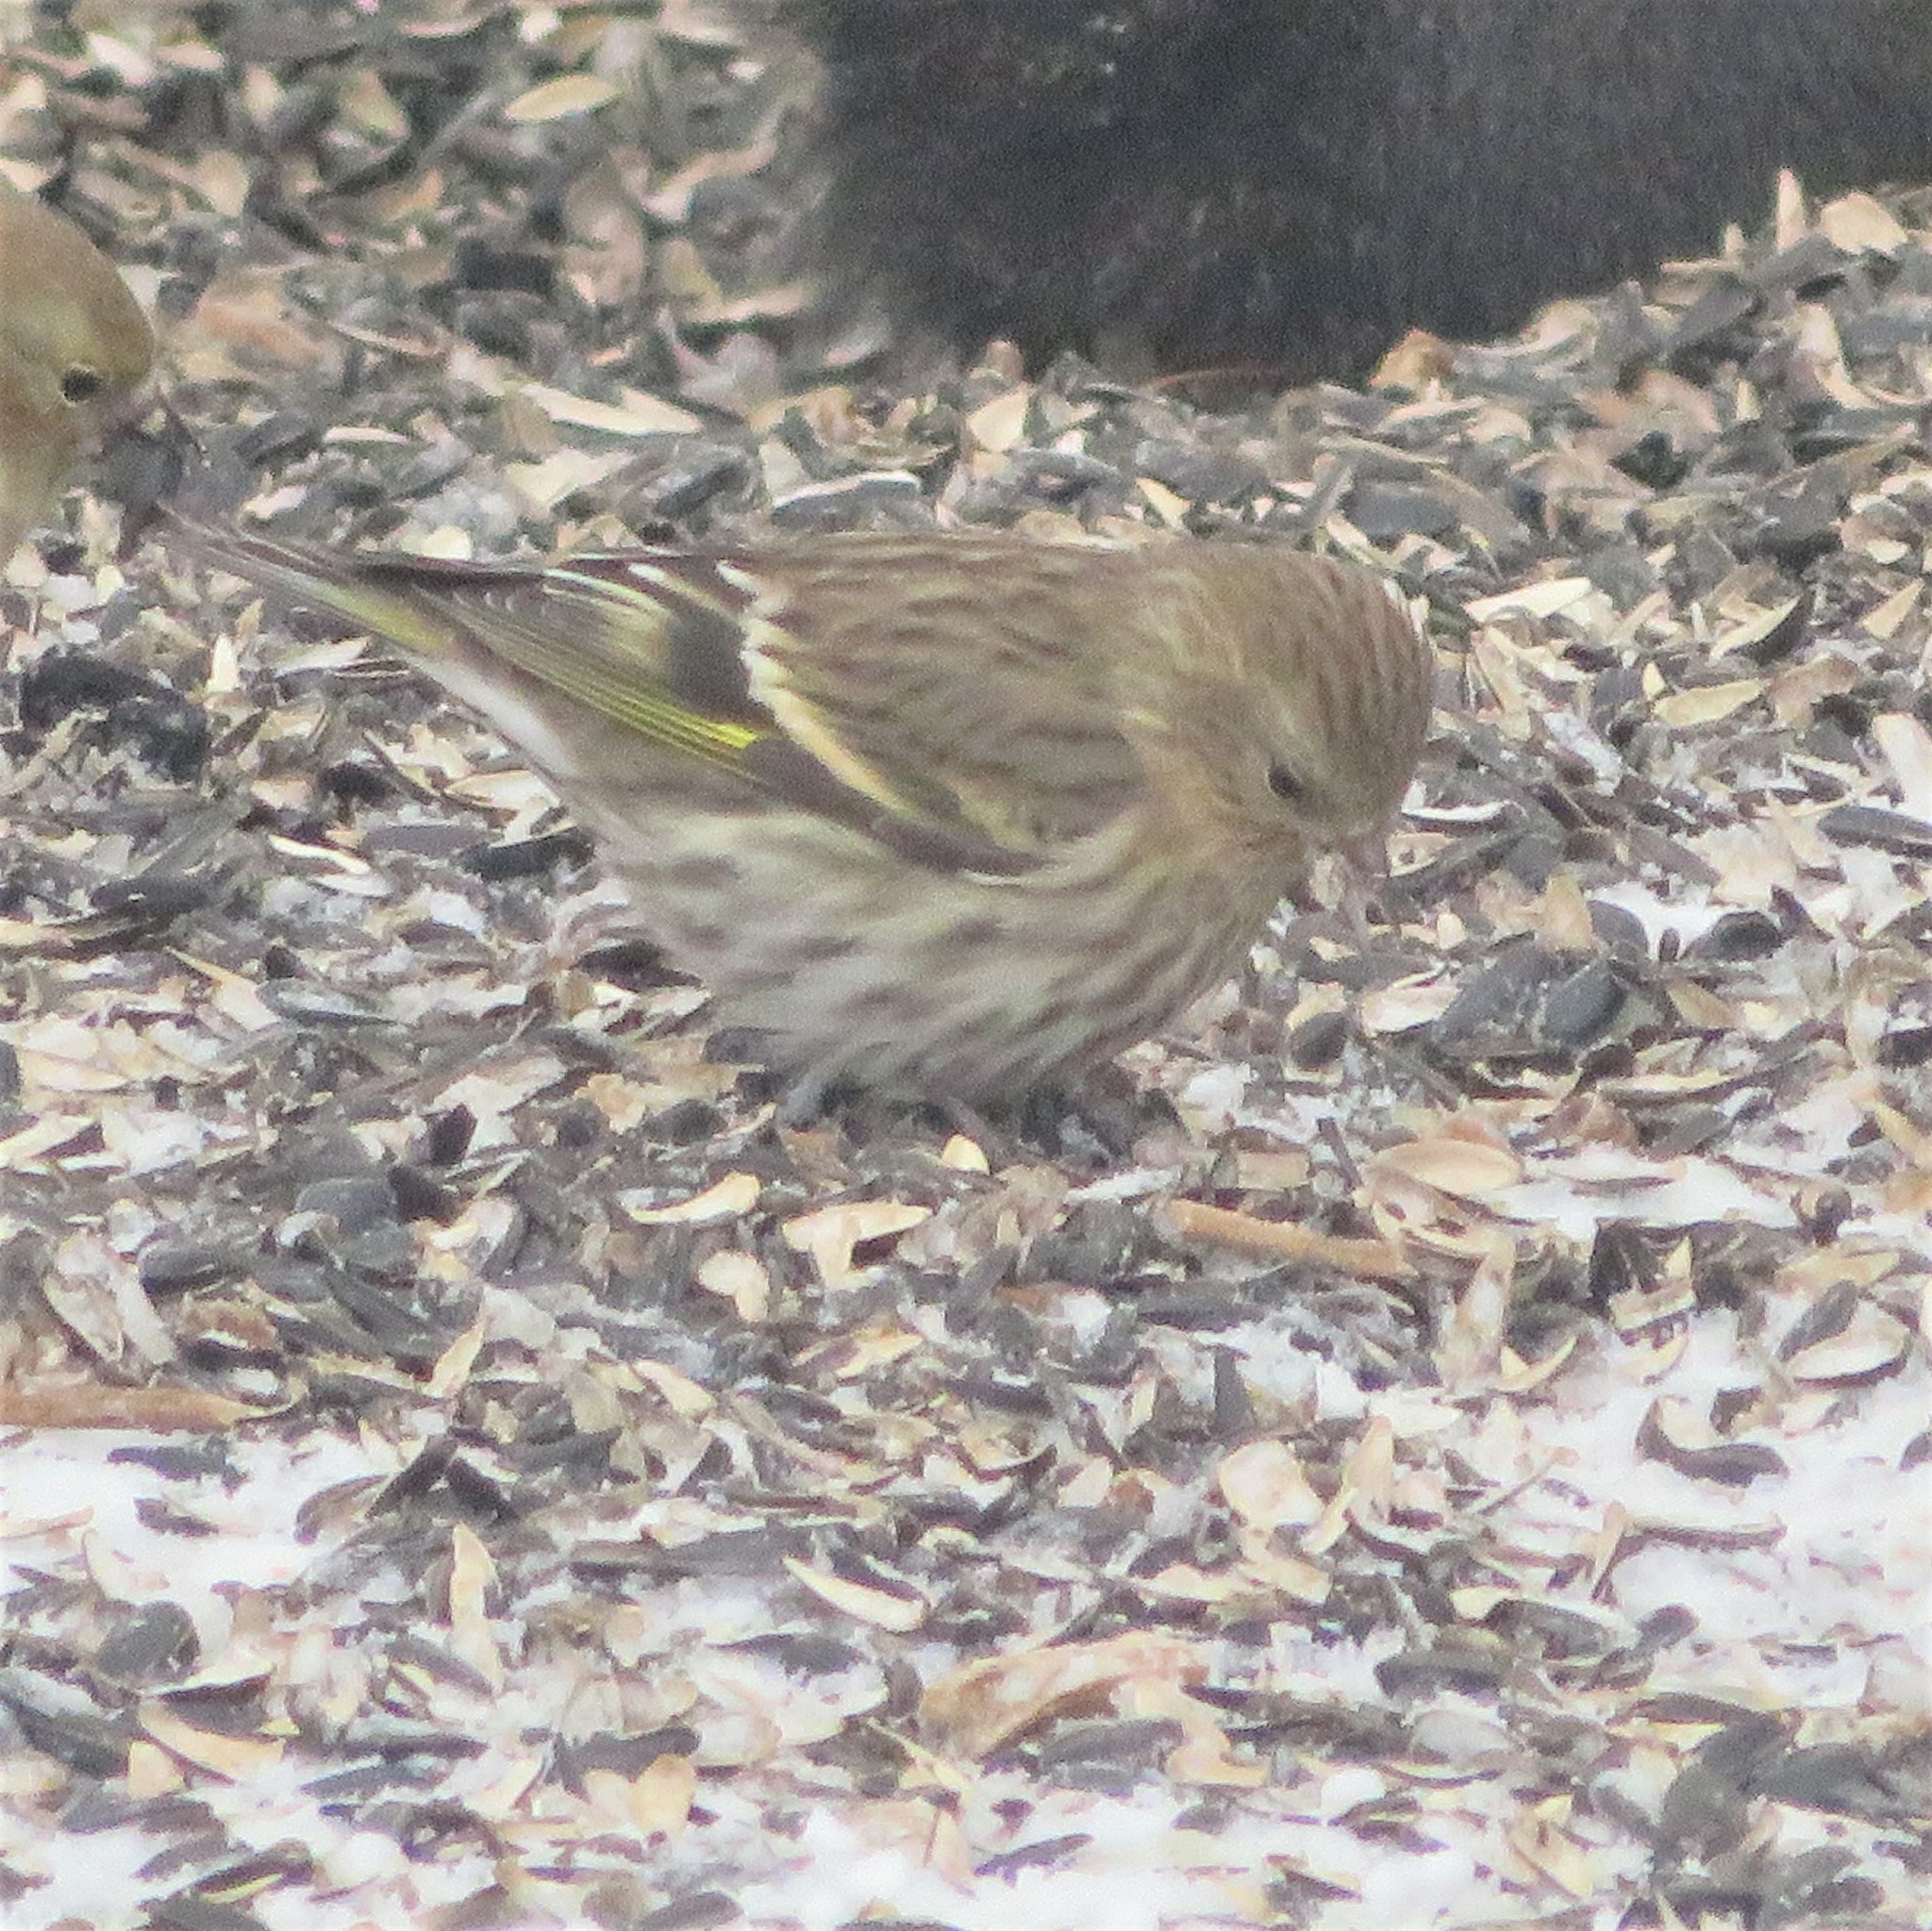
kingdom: Animalia
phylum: Chordata
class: Aves
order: Passeriformes
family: Fringillidae
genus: Spinus
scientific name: Spinus pinus
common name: Pine siskin
